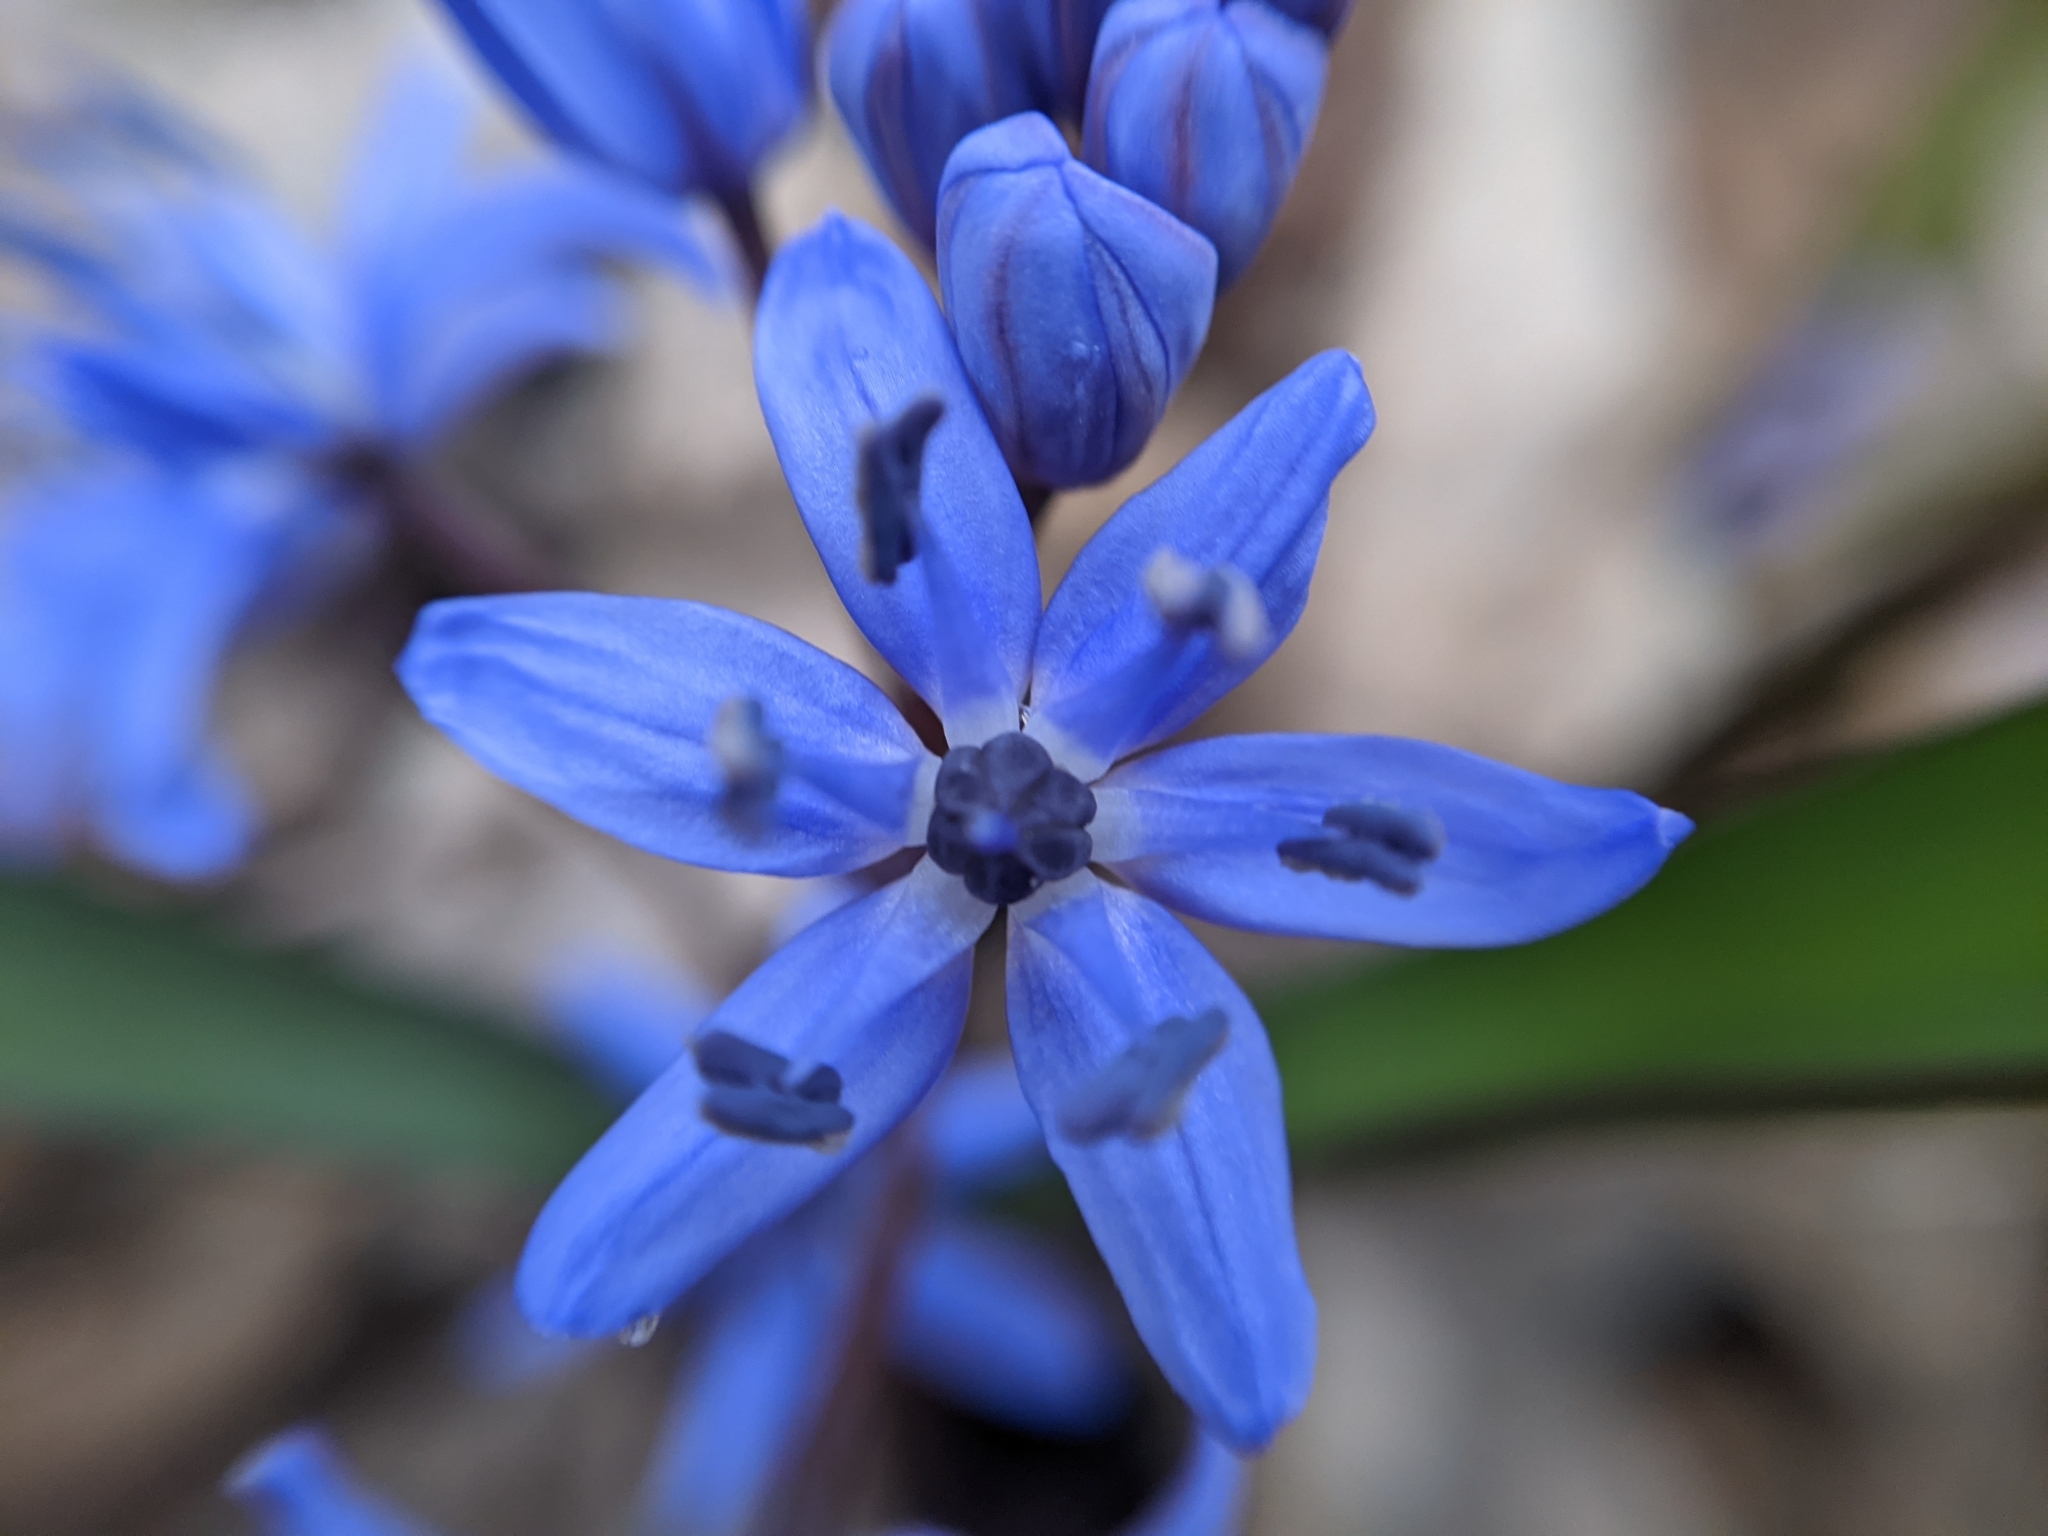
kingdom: Plantae
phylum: Tracheophyta
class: Liliopsida
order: Asparagales
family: Asparagaceae
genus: Scilla
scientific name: Scilla bifolia
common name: Alpine squill
